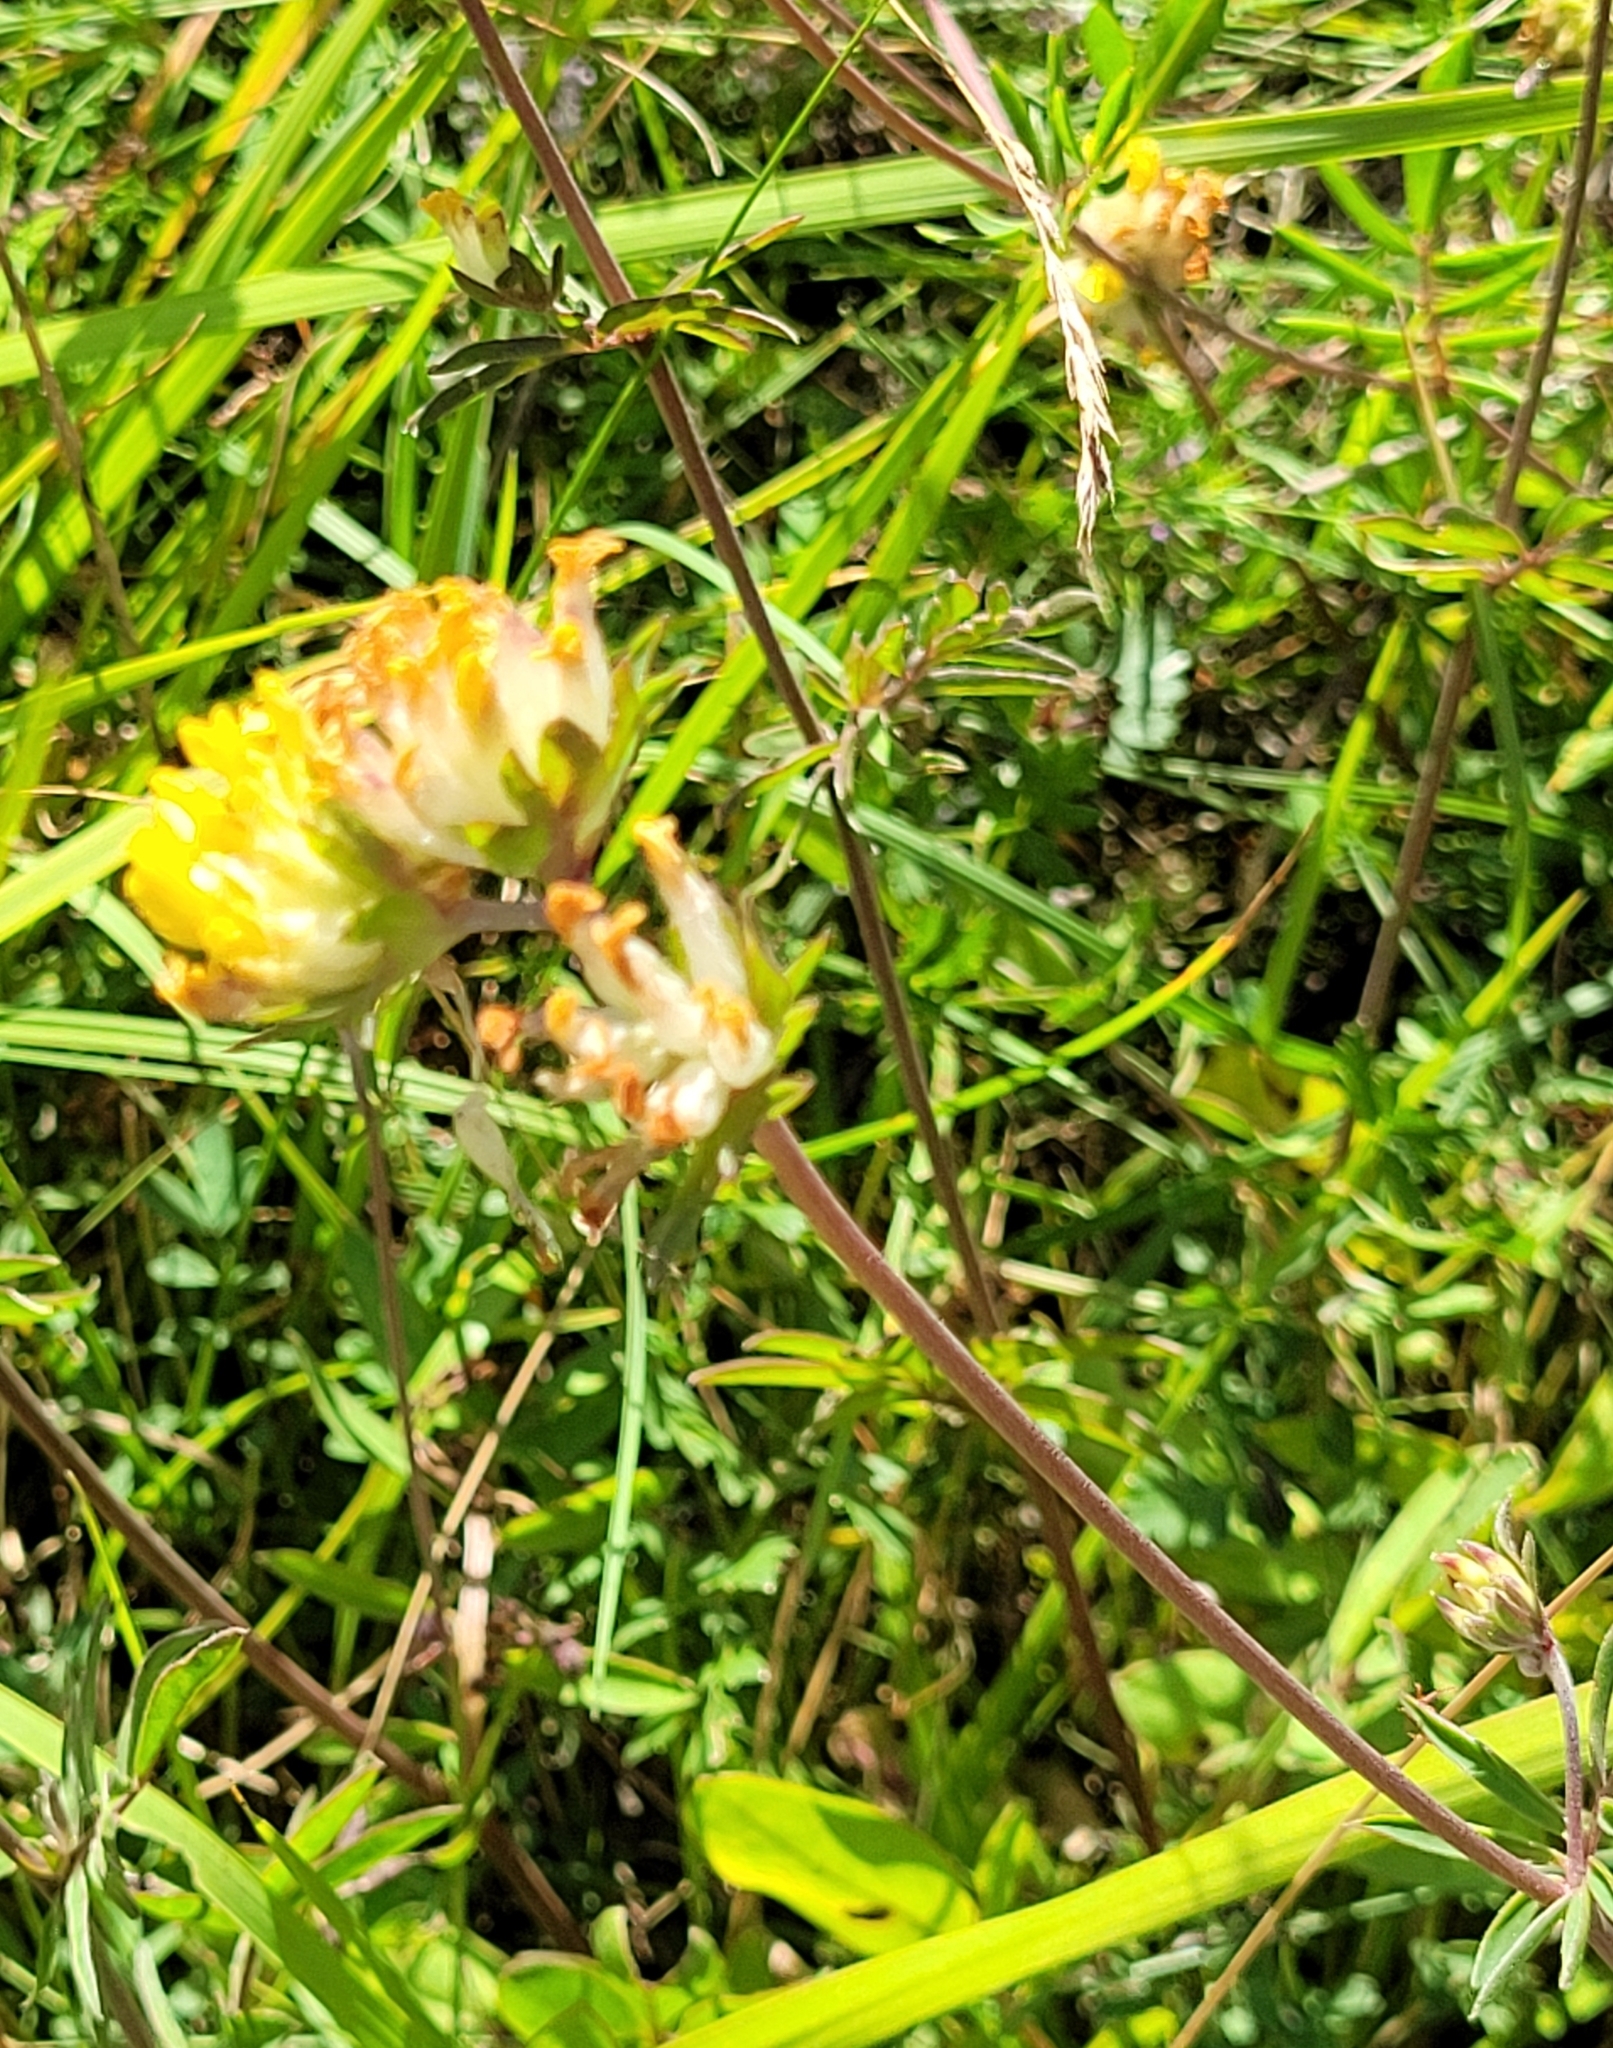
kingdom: Plantae
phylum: Tracheophyta
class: Magnoliopsida
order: Fabales
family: Fabaceae
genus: Anthyllis
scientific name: Anthyllis vulneraria
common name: Kidney vetch
